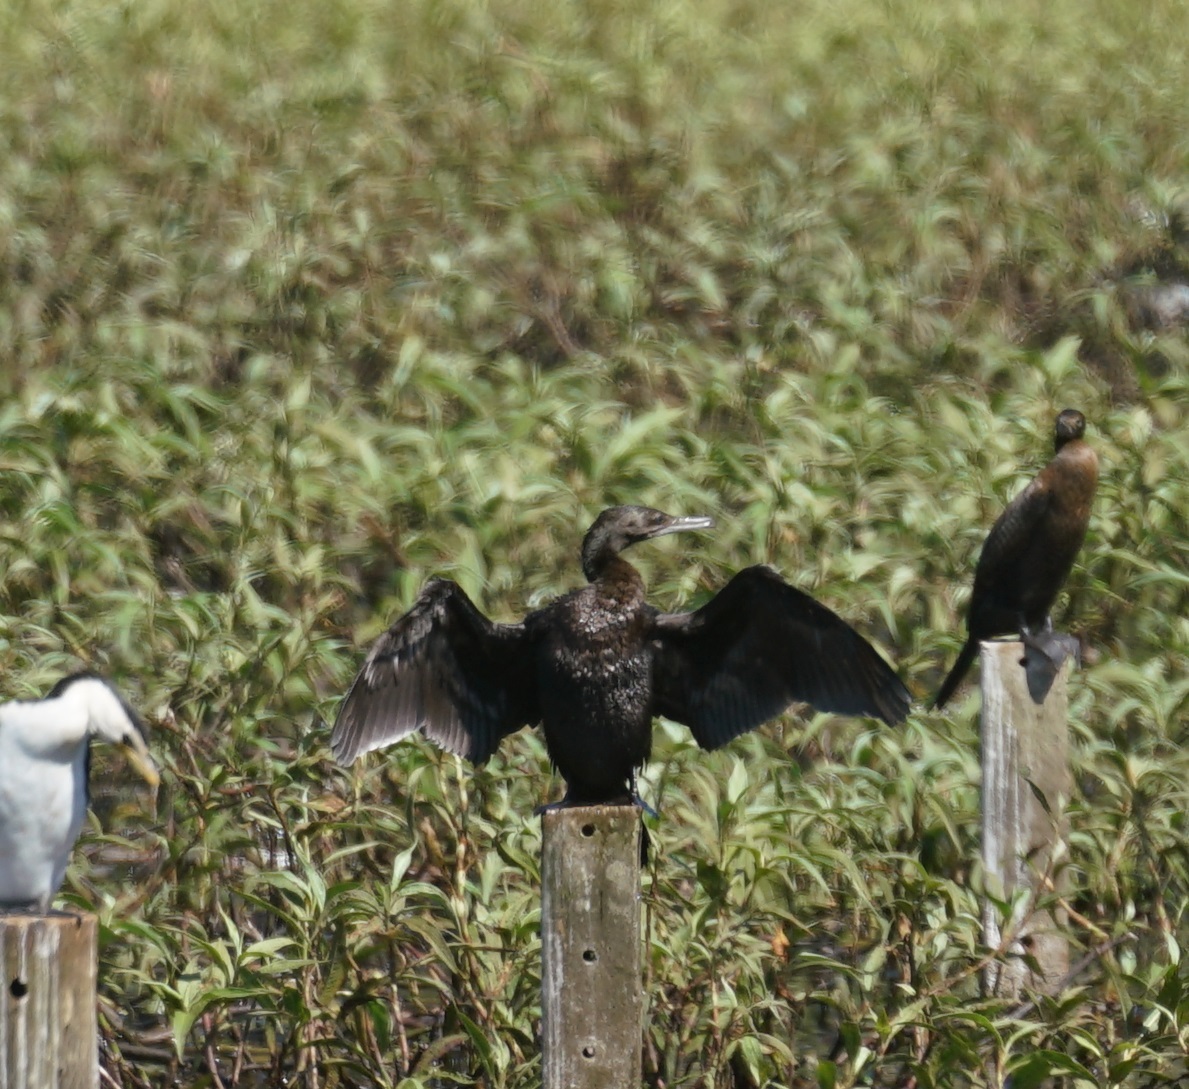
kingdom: Animalia
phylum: Chordata
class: Aves
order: Suliformes
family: Phalacrocoracidae
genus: Phalacrocorax
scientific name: Phalacrocorax sulcirostris
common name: Little black cormorant
